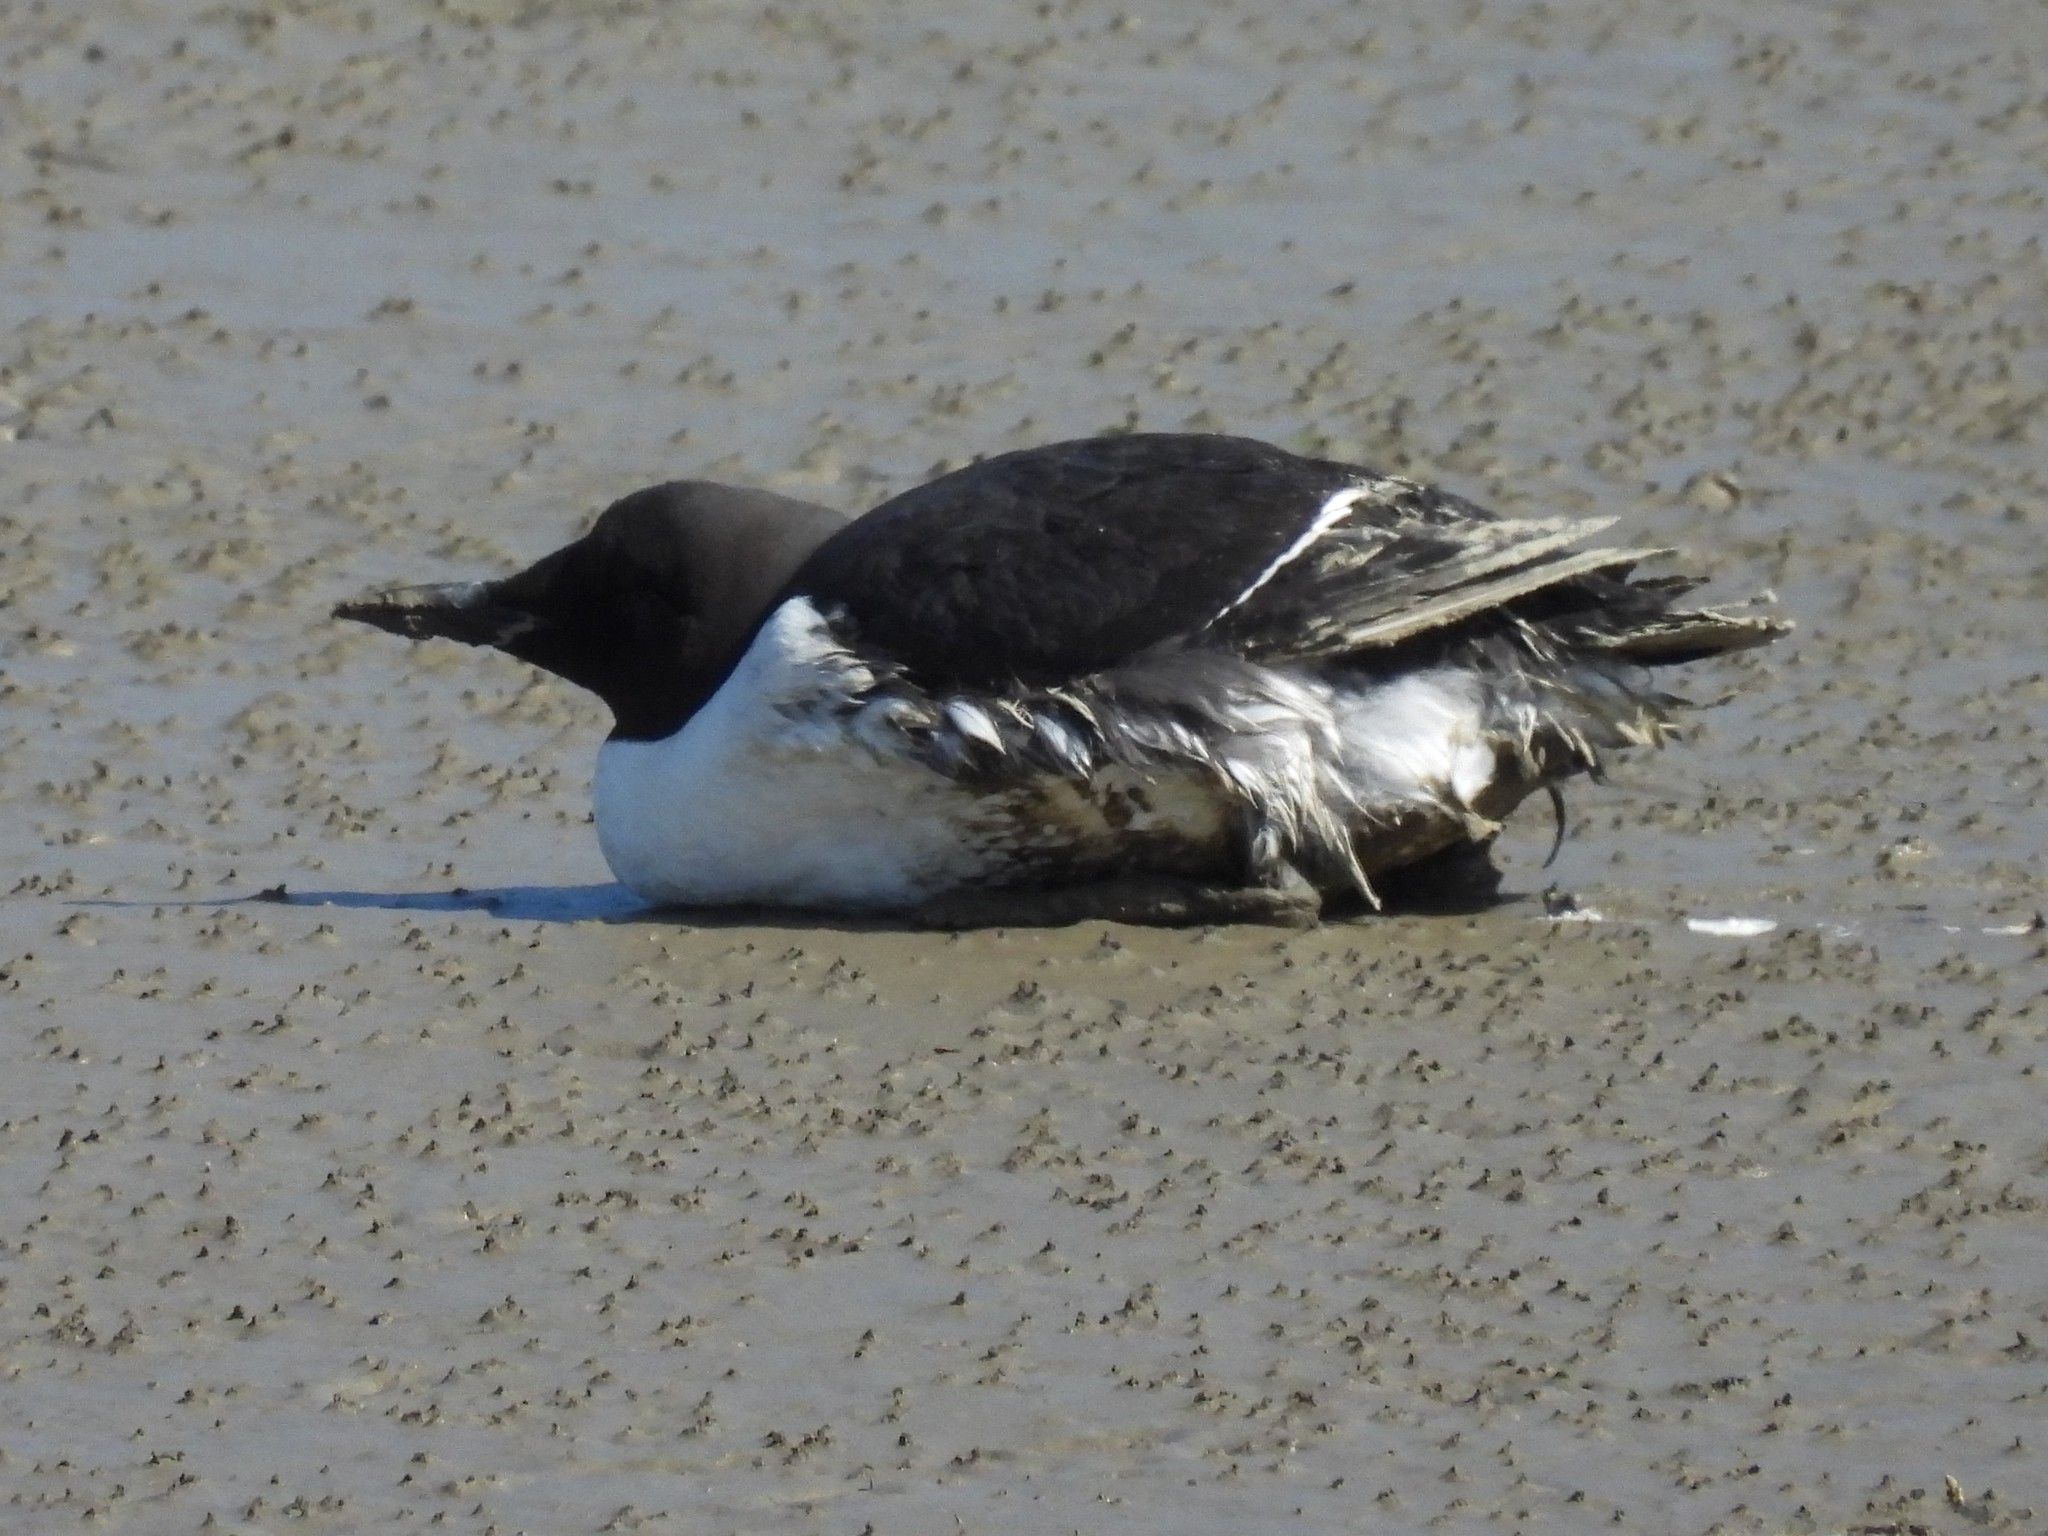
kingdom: Animalia
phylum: Chordata
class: Aves
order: Charadriiformes
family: Alcidae
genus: Uria
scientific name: Uria aalge
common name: Common murre
